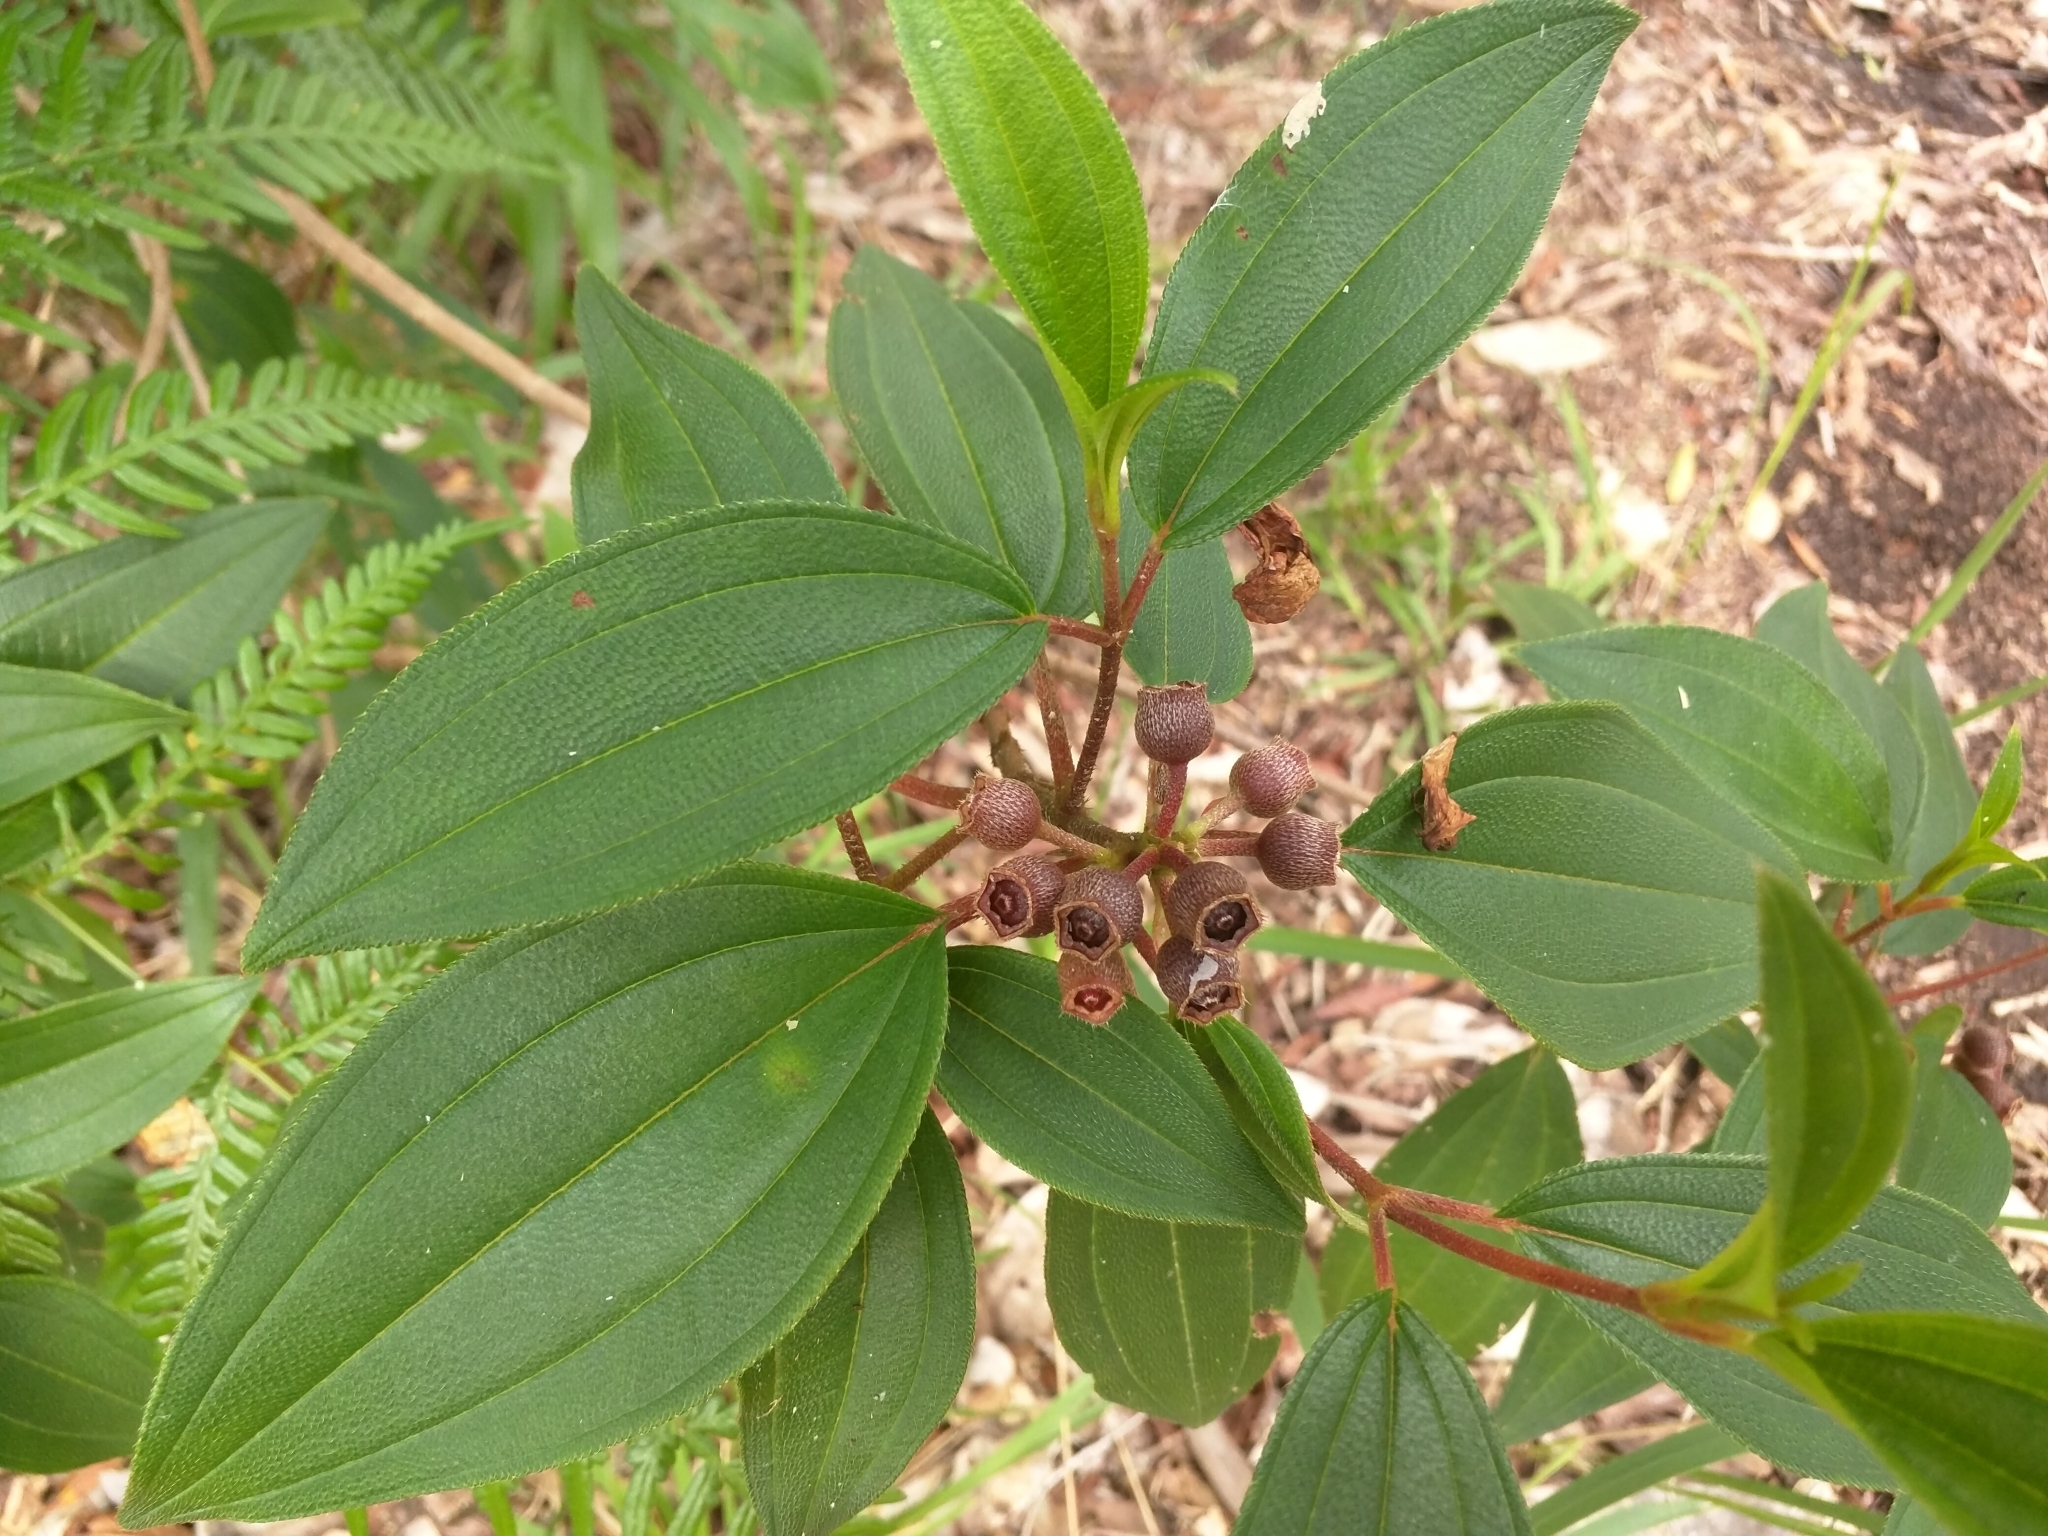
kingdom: Plantae
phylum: Tracheophyta
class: Magnoliopsida
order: Myrtales
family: Melastomataceae
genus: Melastoma
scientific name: Melastoma malabathricum
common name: Indian-rhododendron
